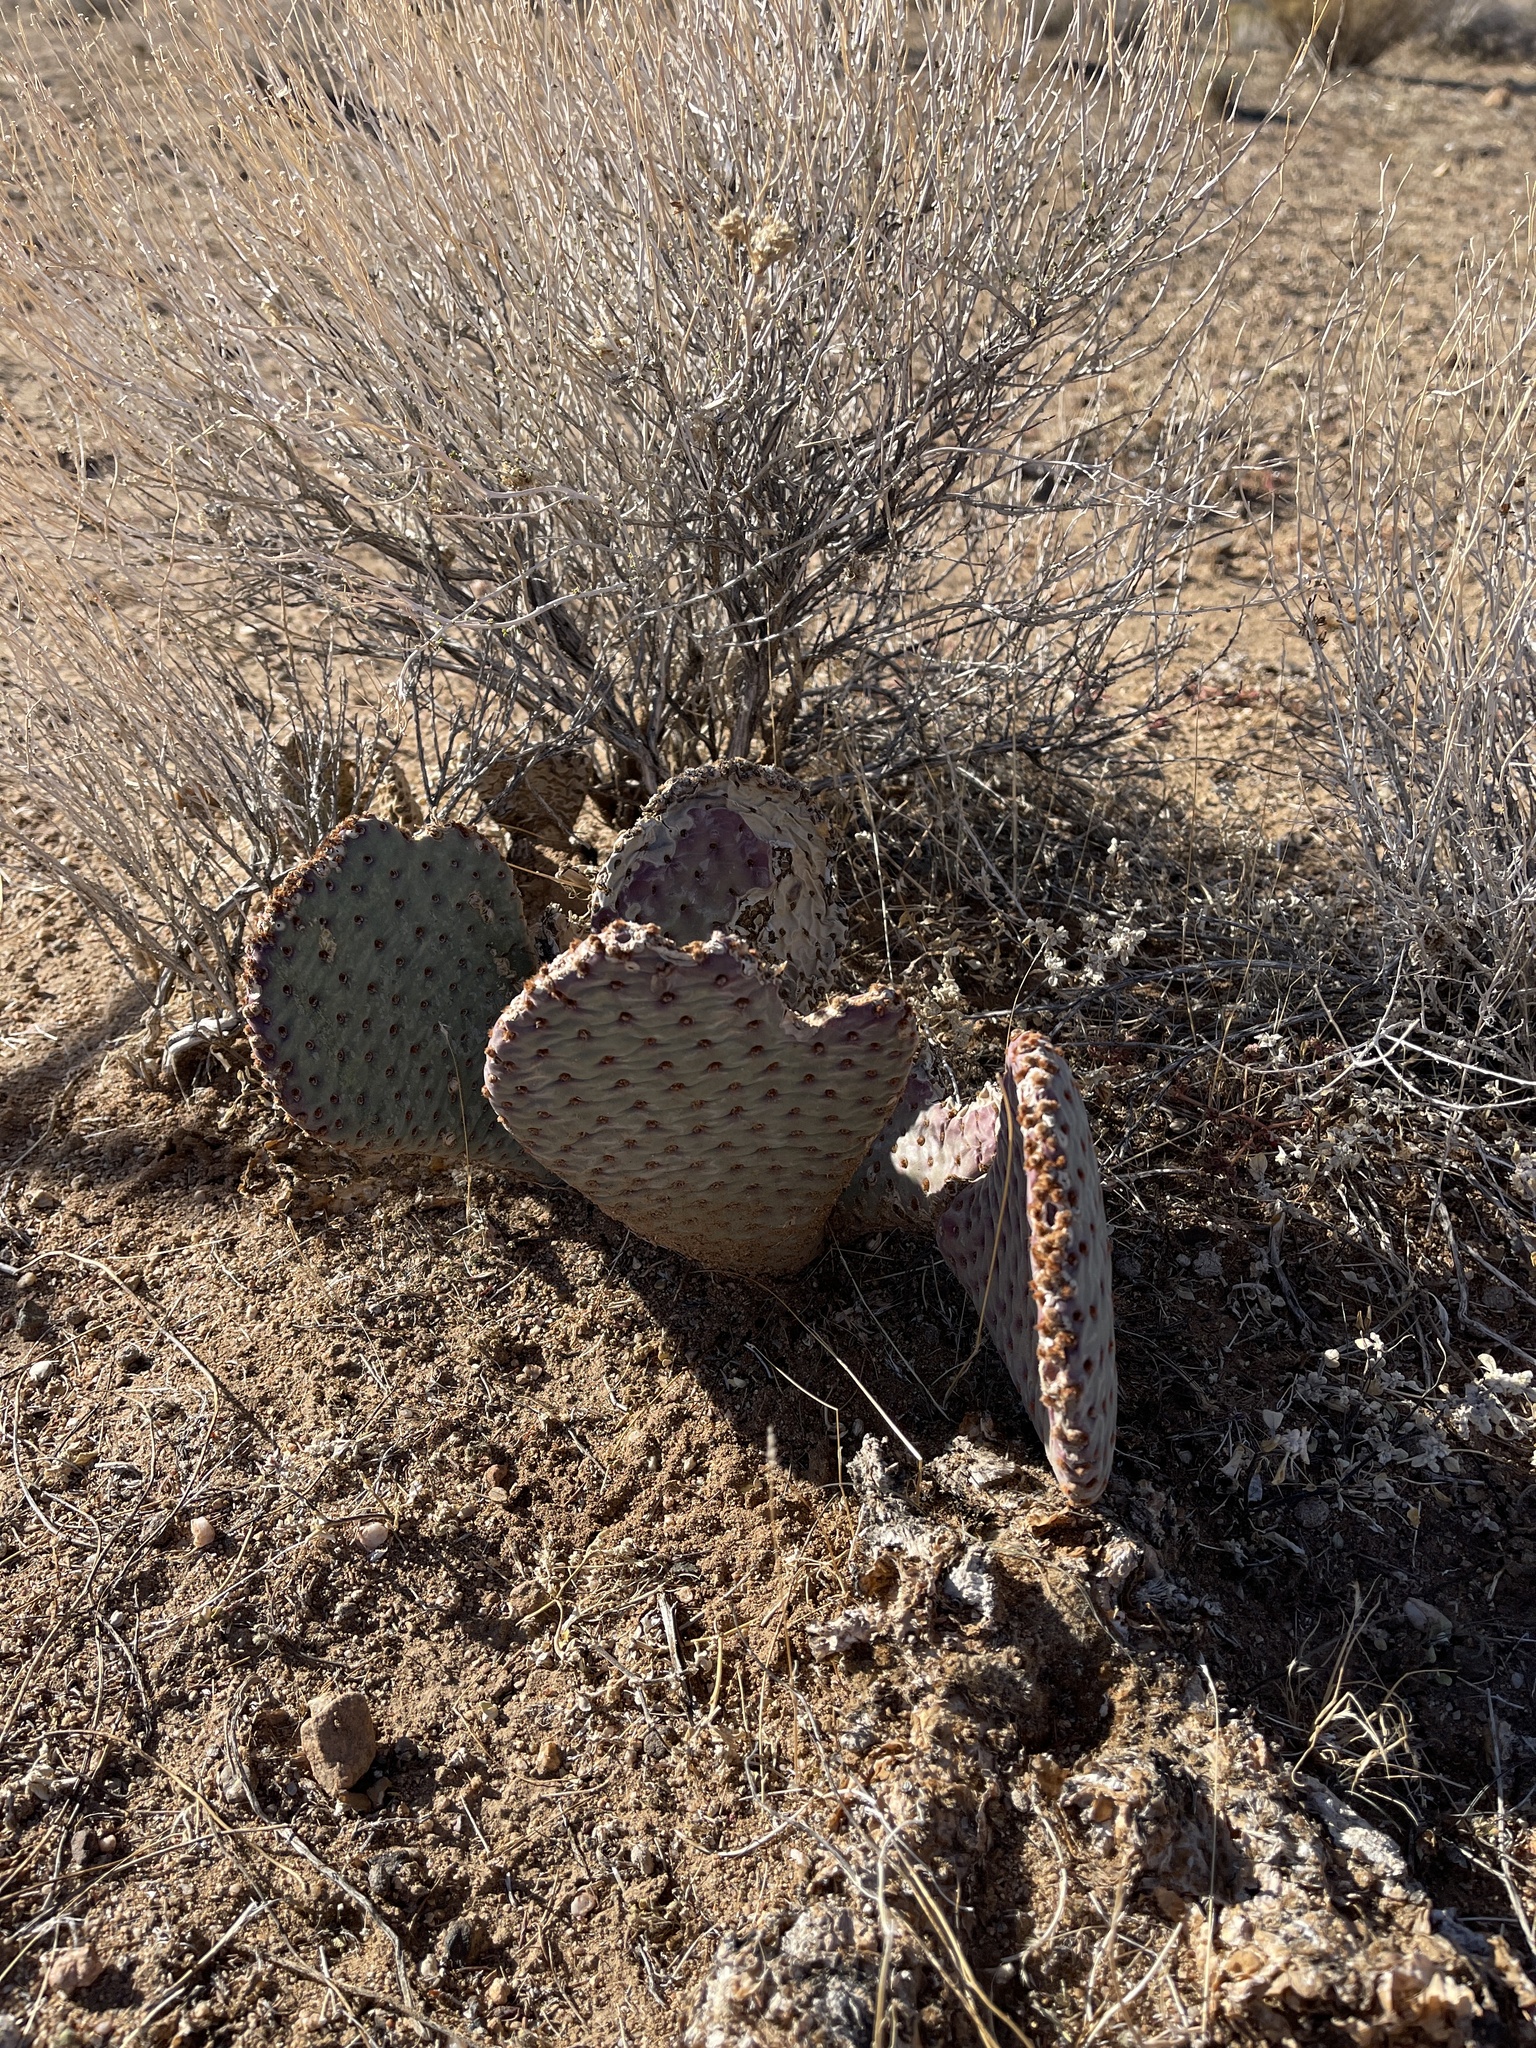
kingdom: Plantae
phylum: Tracheophyta
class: Magnoliopsida
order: Caryophyllales
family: Cactaceae
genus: Opuntia
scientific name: Opuntia basilaris
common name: Beavertail prickly-pear
